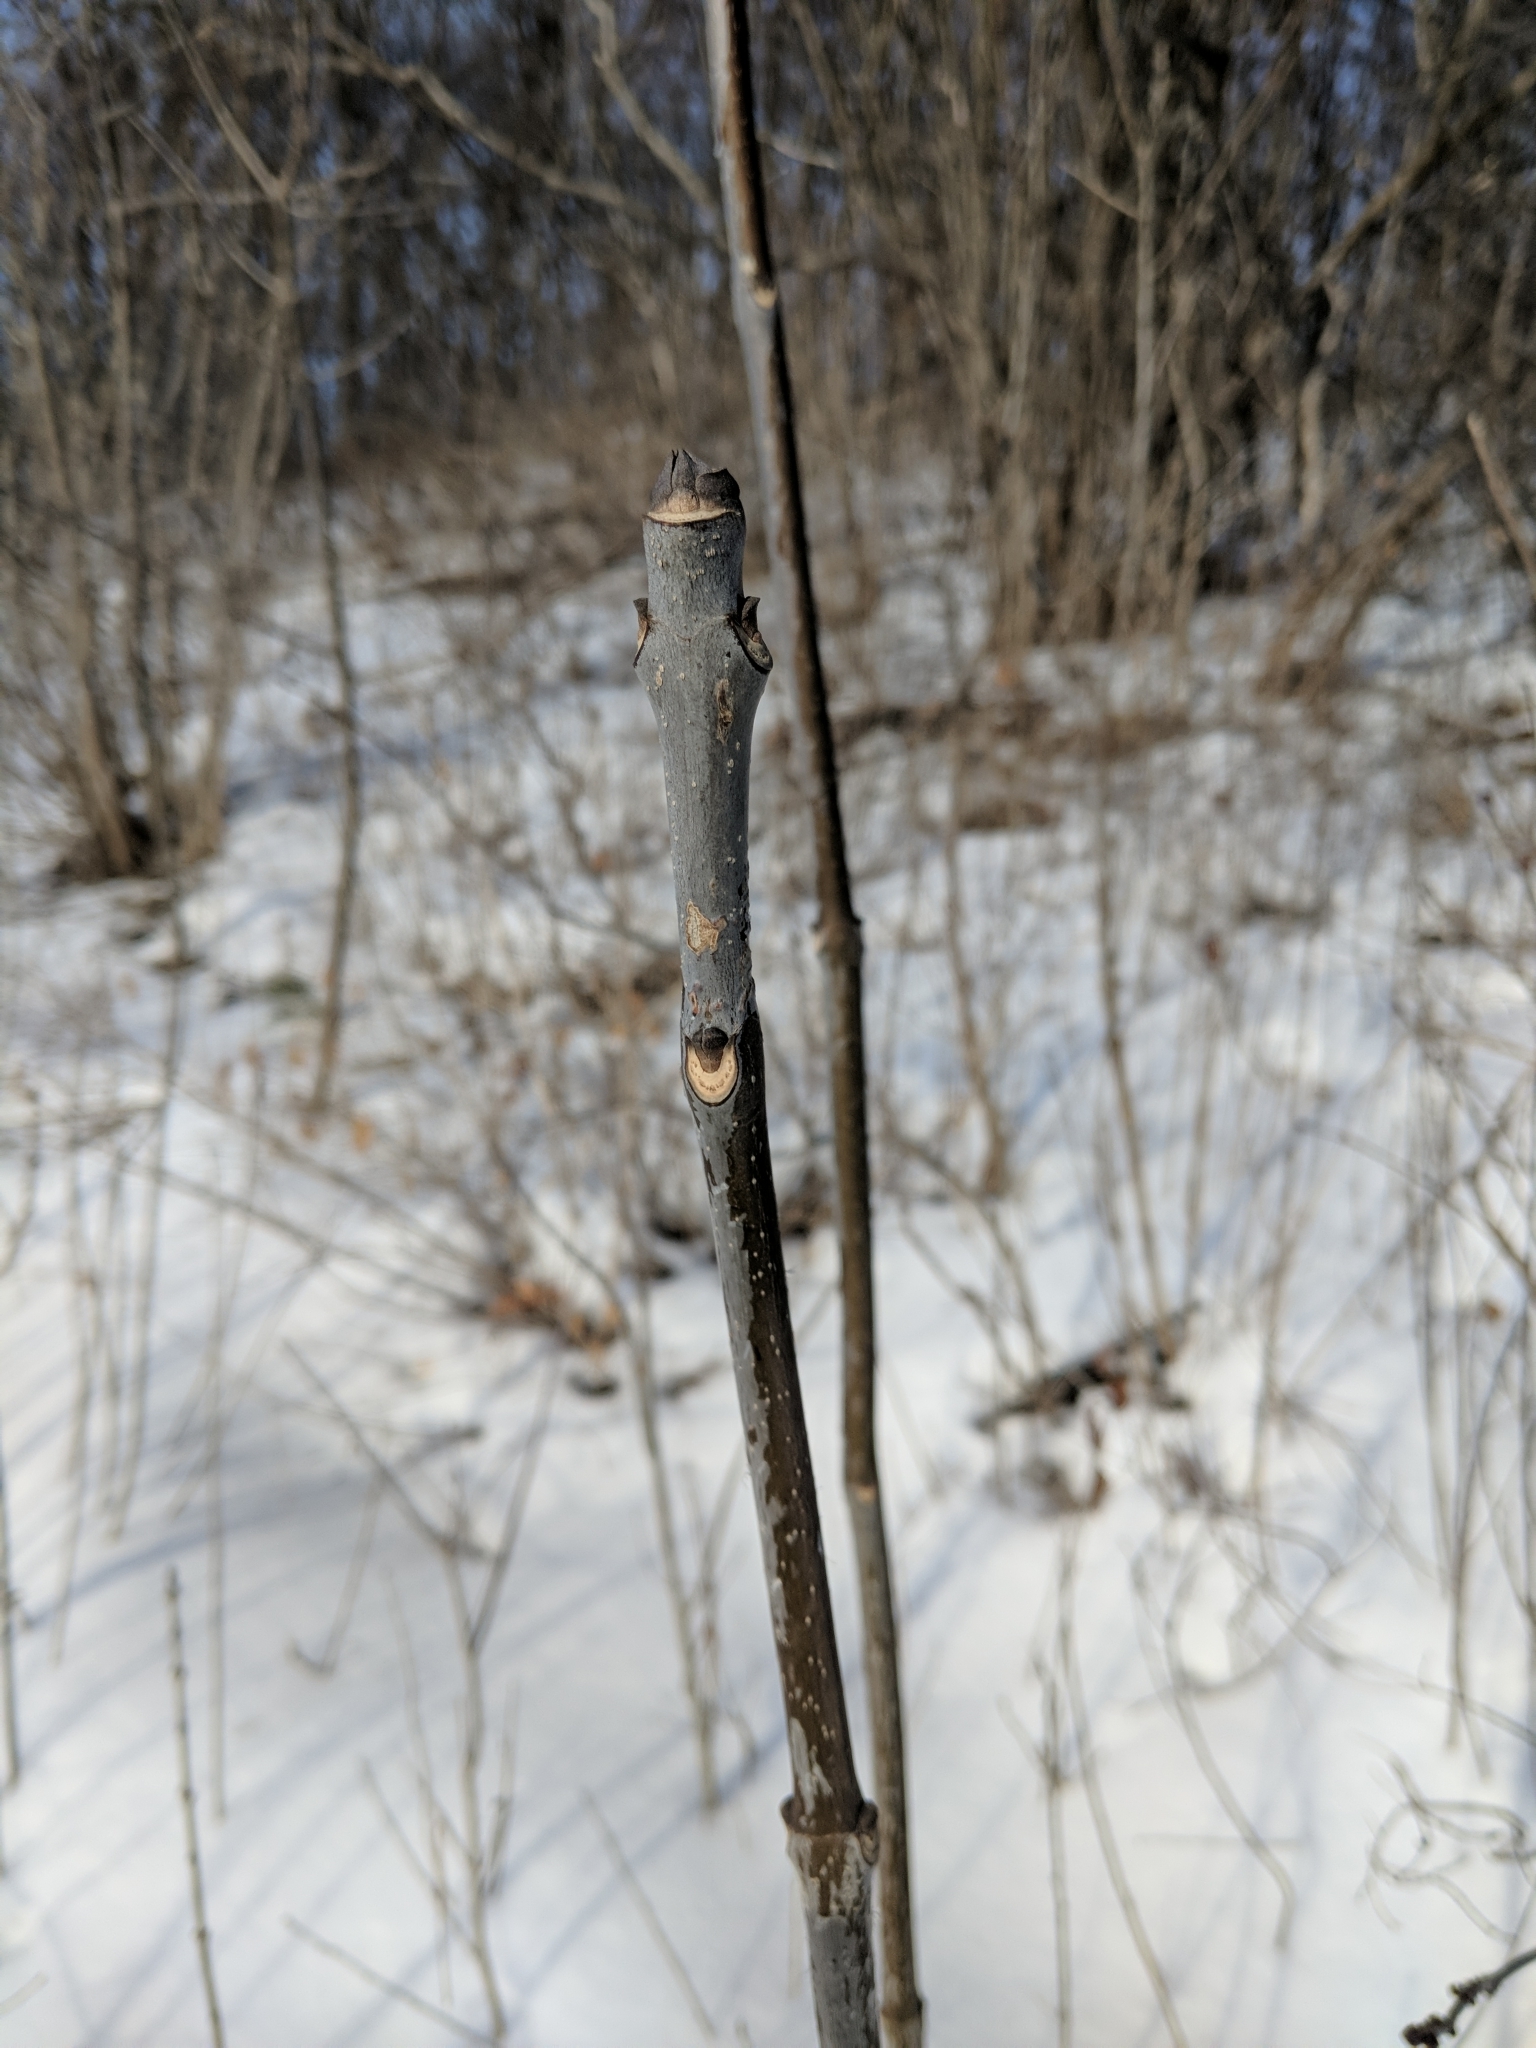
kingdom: Plantae
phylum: Tracheophyta
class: Magnoliopsida
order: Lamiales
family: Oleaceae
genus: Fraxinus
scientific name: Fraxinus americana
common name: White ash
